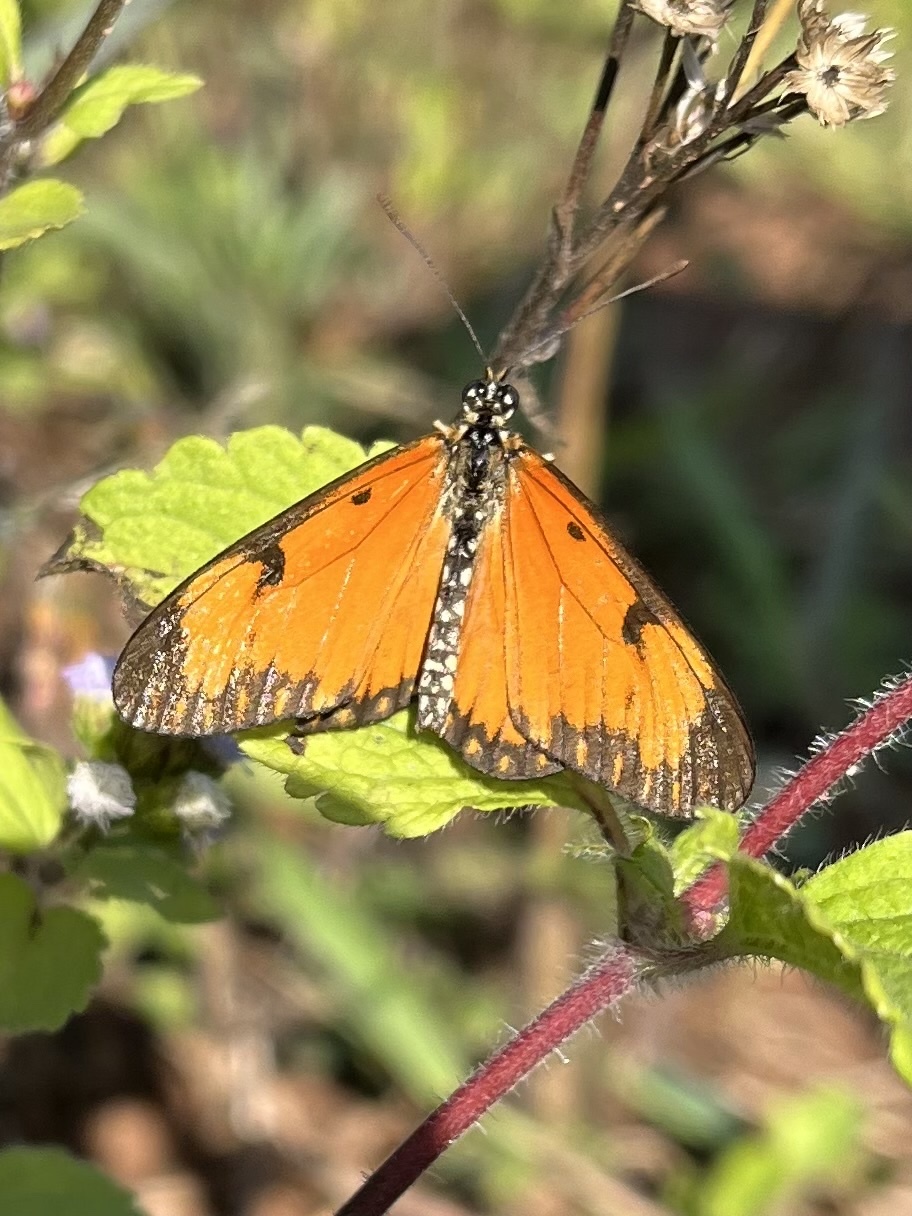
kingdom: Animalia
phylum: Arthropoda
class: Insecta
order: Lepidoptera
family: Nymphalidae
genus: Acraea
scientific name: Acraea Telchinia serena
